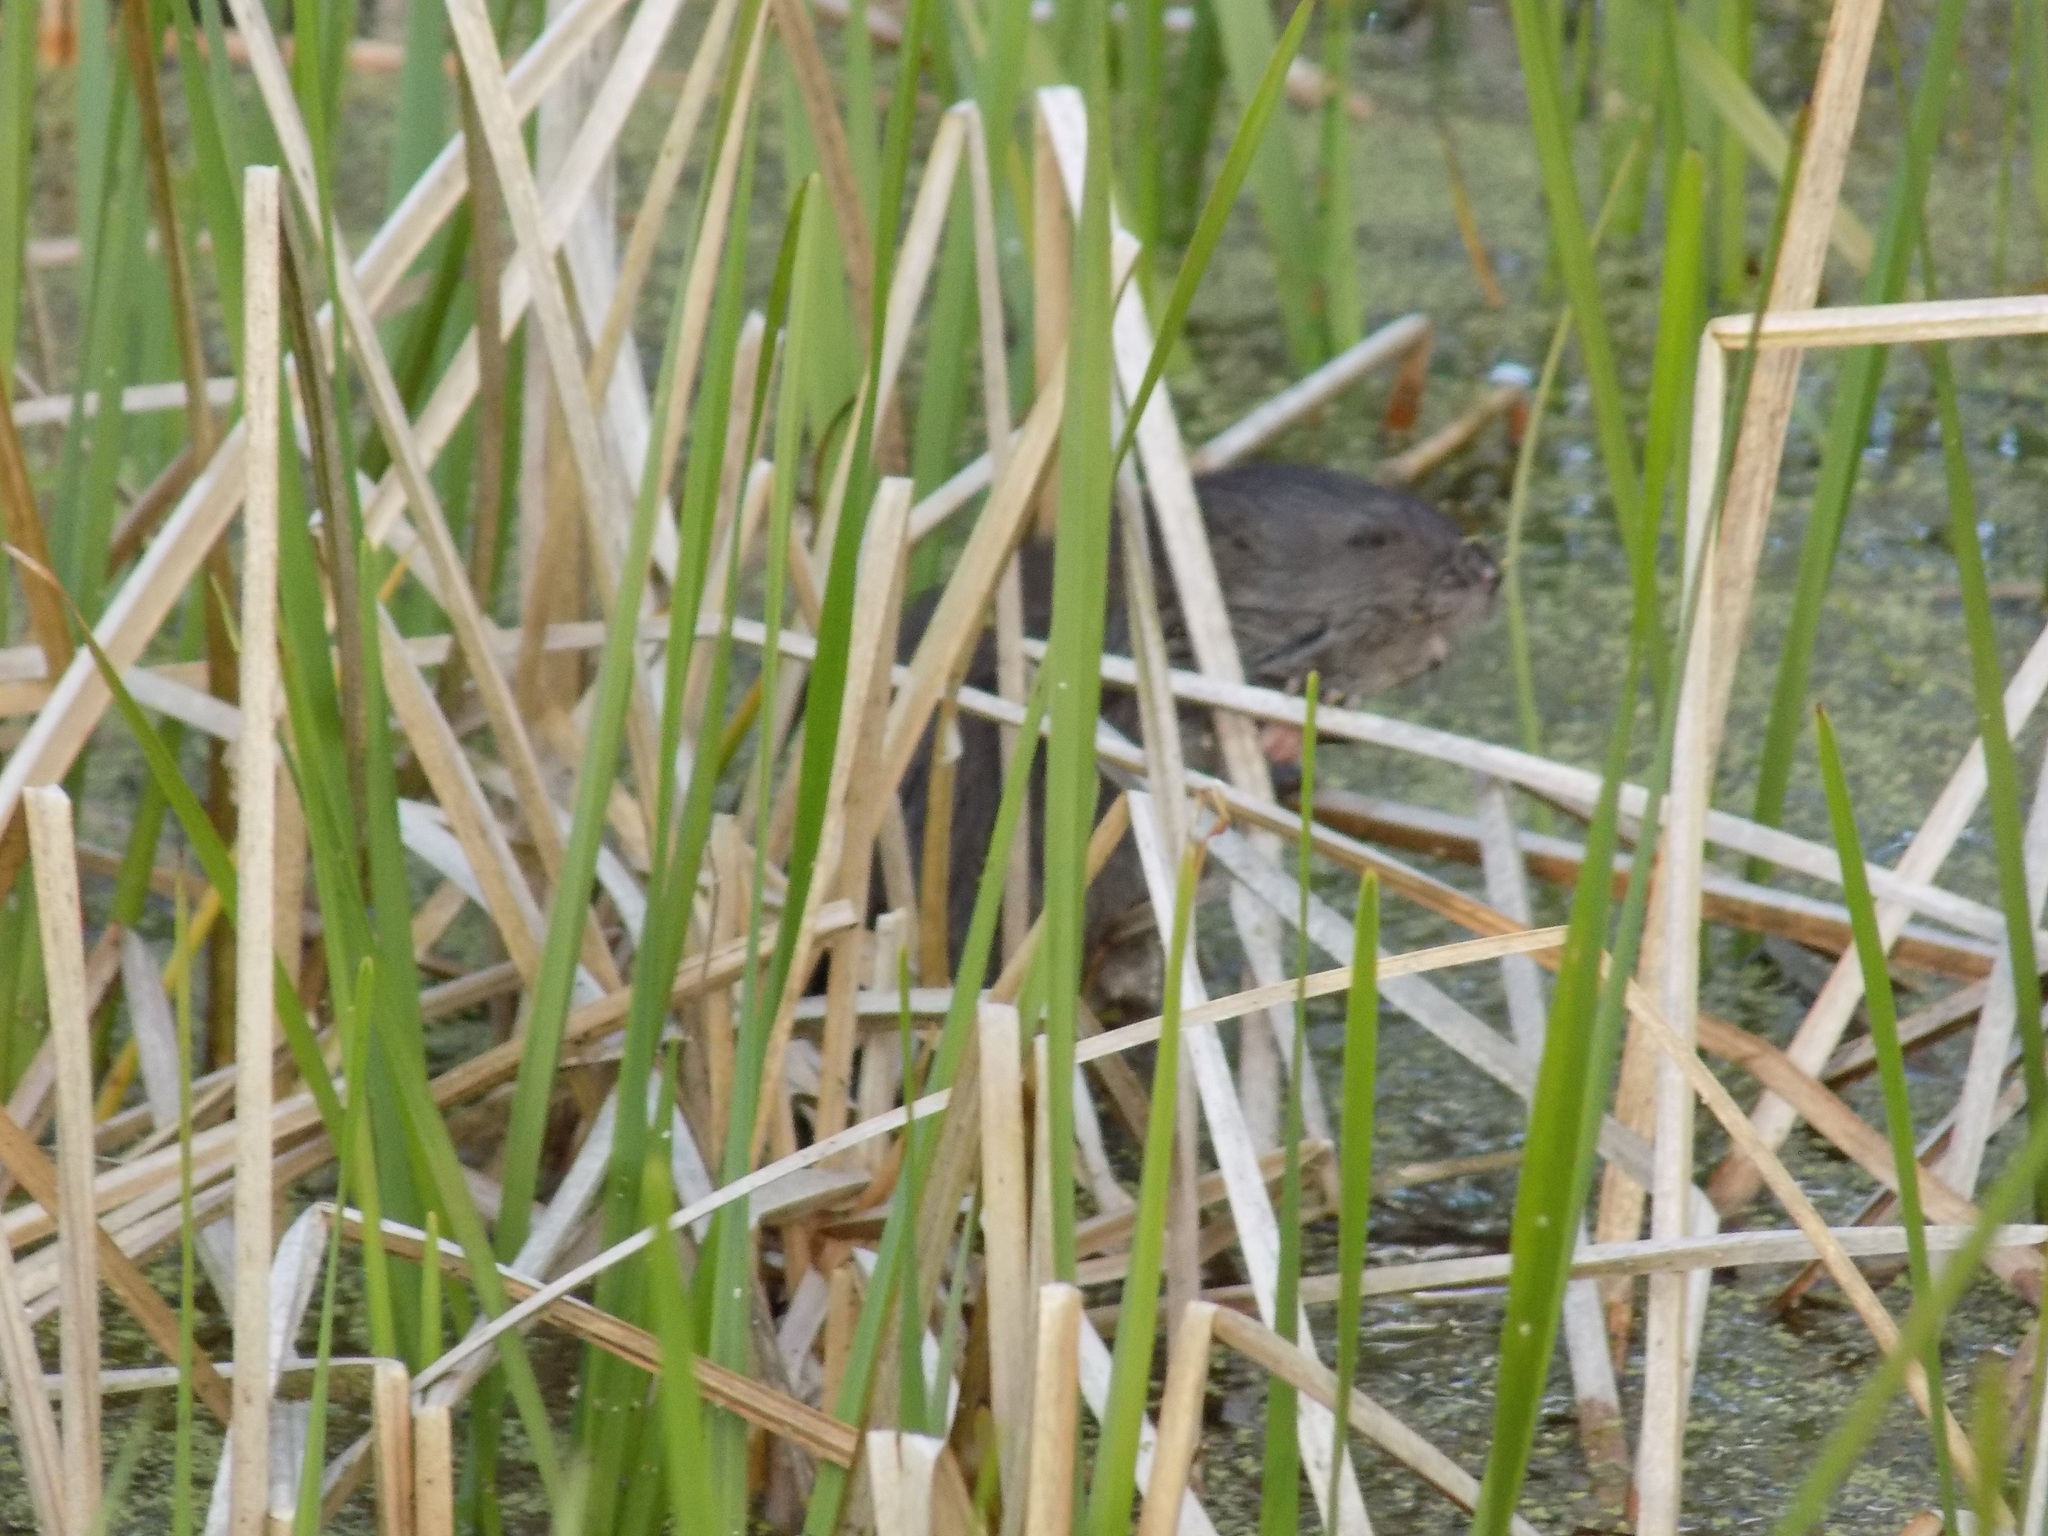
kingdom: Animalia
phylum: Chordata
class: Mammalia
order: Rodentia
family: Cricetidae
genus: Ondatra
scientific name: Ondatra zibethicus
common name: Muskrat
